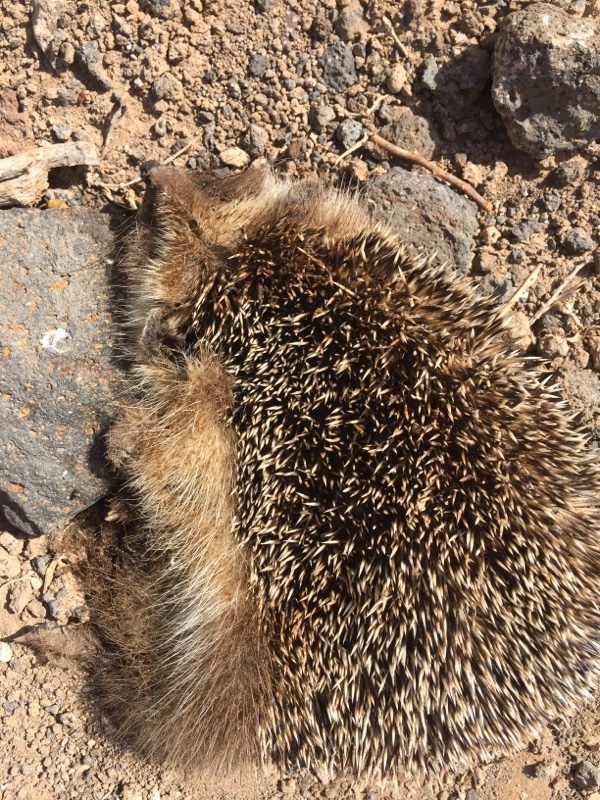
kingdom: Animalia
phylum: Chordata
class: Mammalia
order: Erinaceomorpha
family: Erinaceidae
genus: Atelerix
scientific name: Atelerix algirus
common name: North african hedgehog
